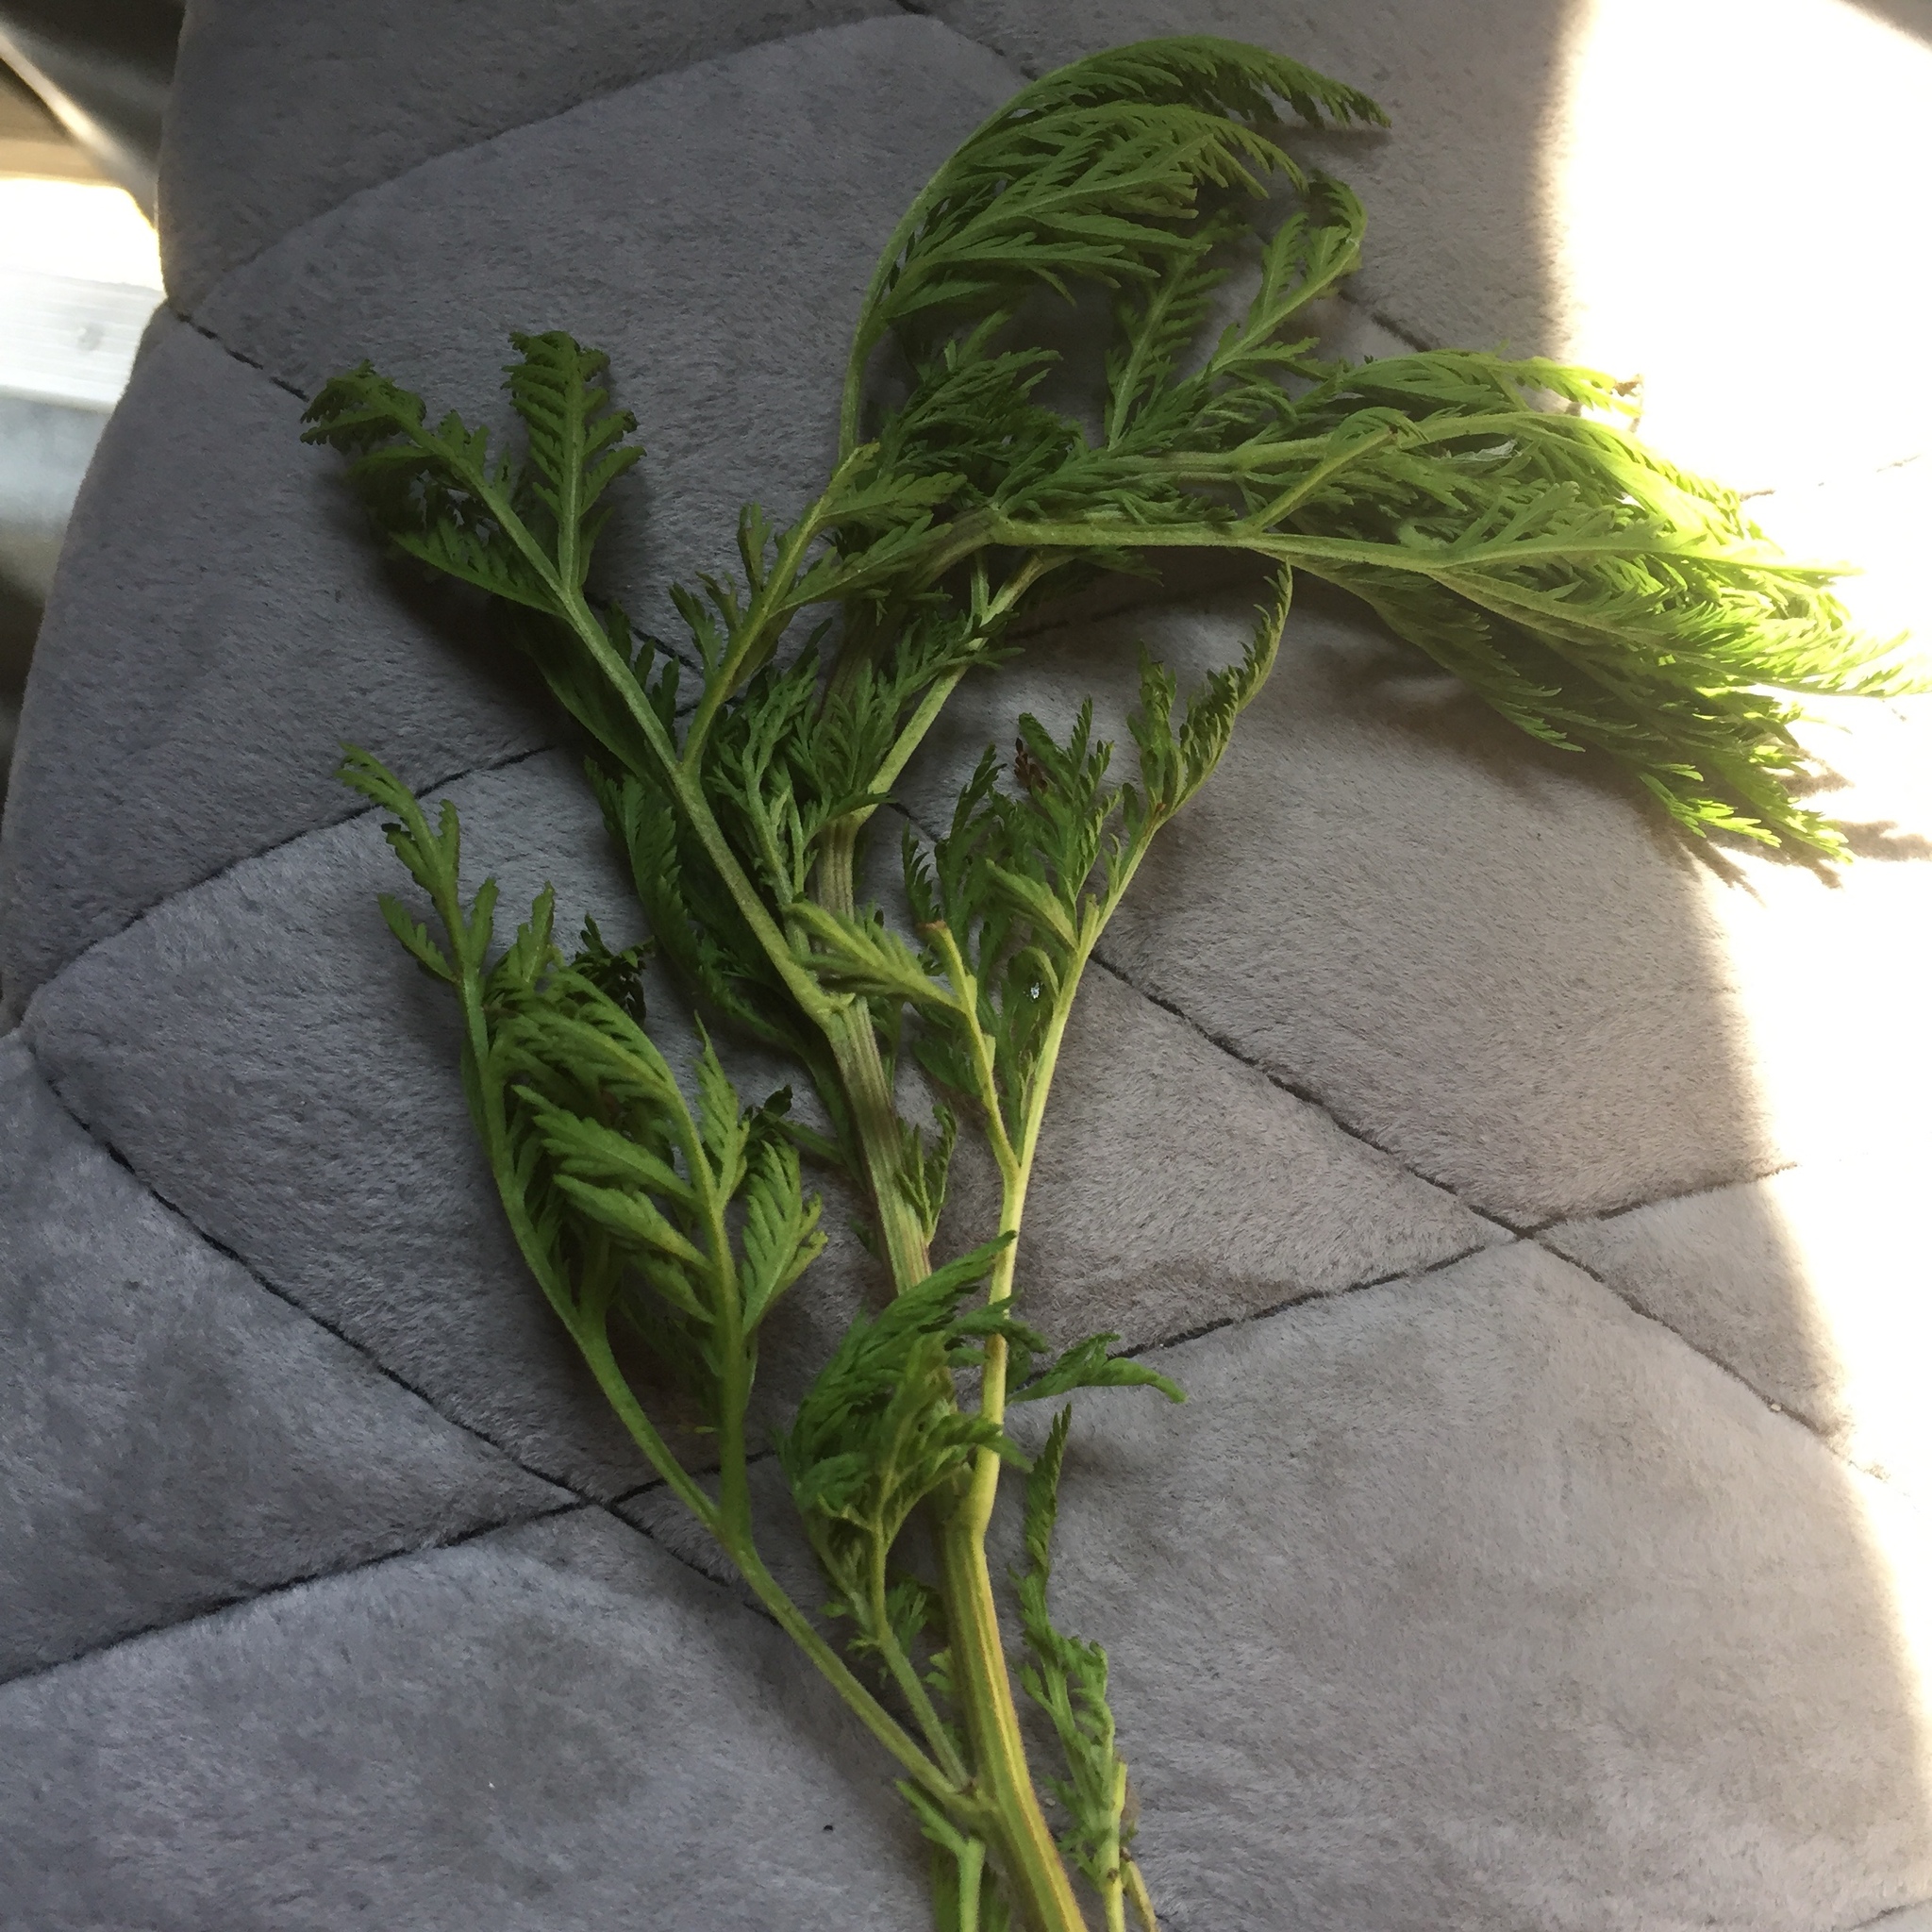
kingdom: Plantae
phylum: Tracheophyta
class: Magnoliopsida
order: Asterales
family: Asteraceae
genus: Artemisia
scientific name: Artemisia annua
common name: Sweet sagewort
